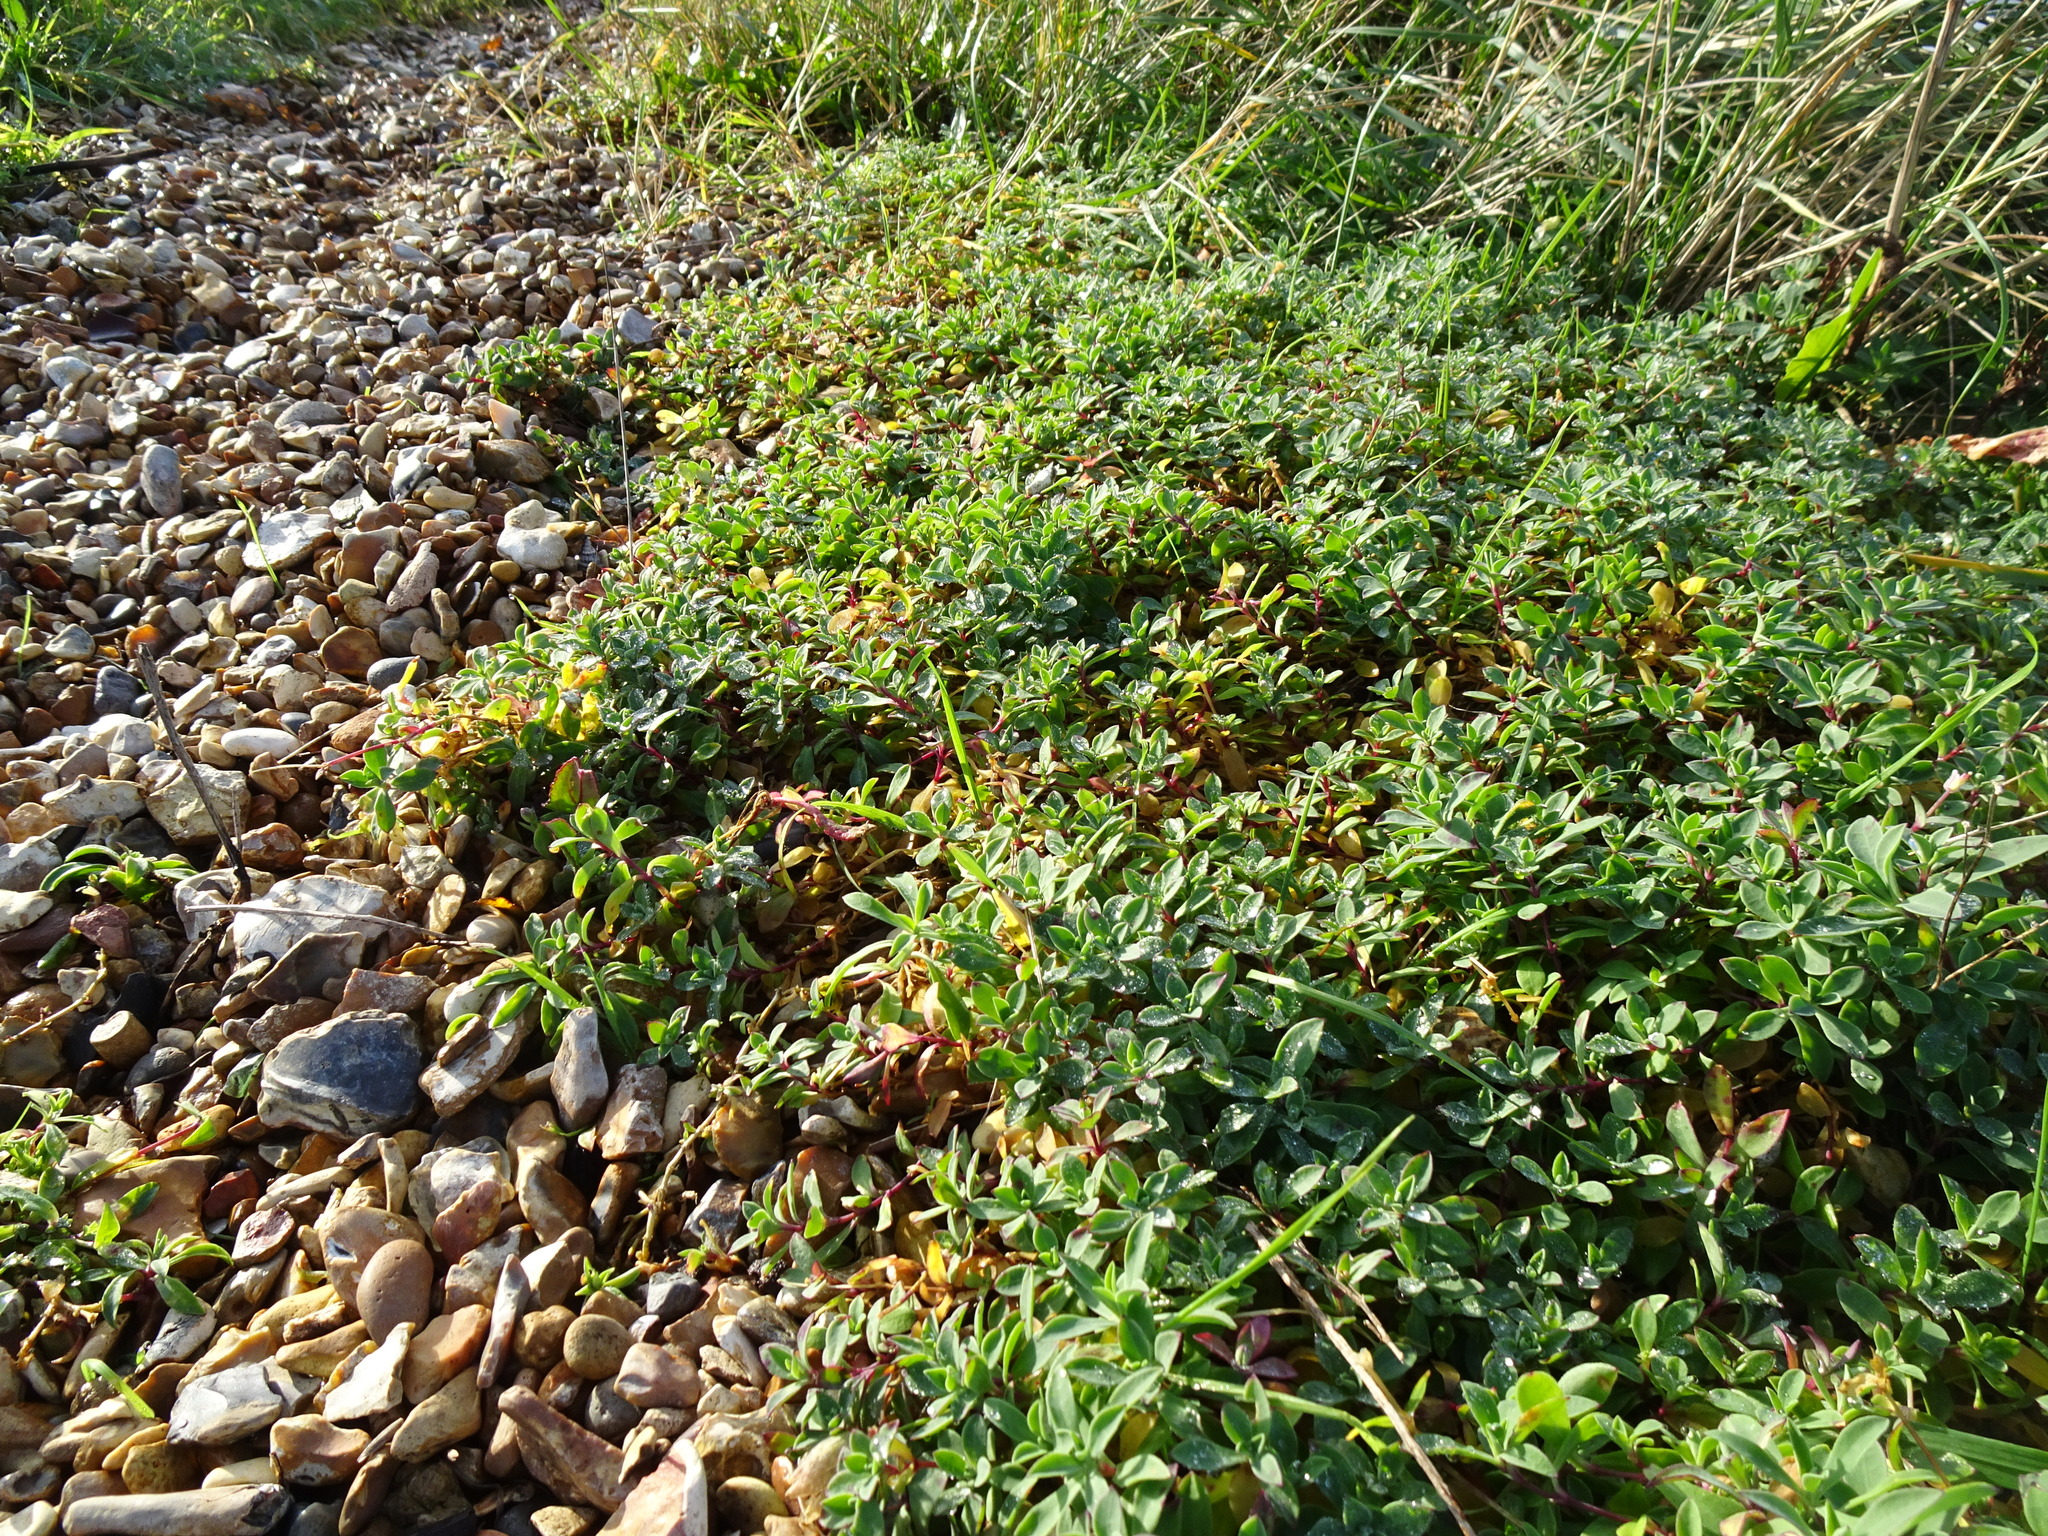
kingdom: Plantae
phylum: Tracheophyta
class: Magnoliopsida
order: Caryophyllales
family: Caryophyllaceae
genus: Silene
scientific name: Silene uniflora
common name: Sea campion
